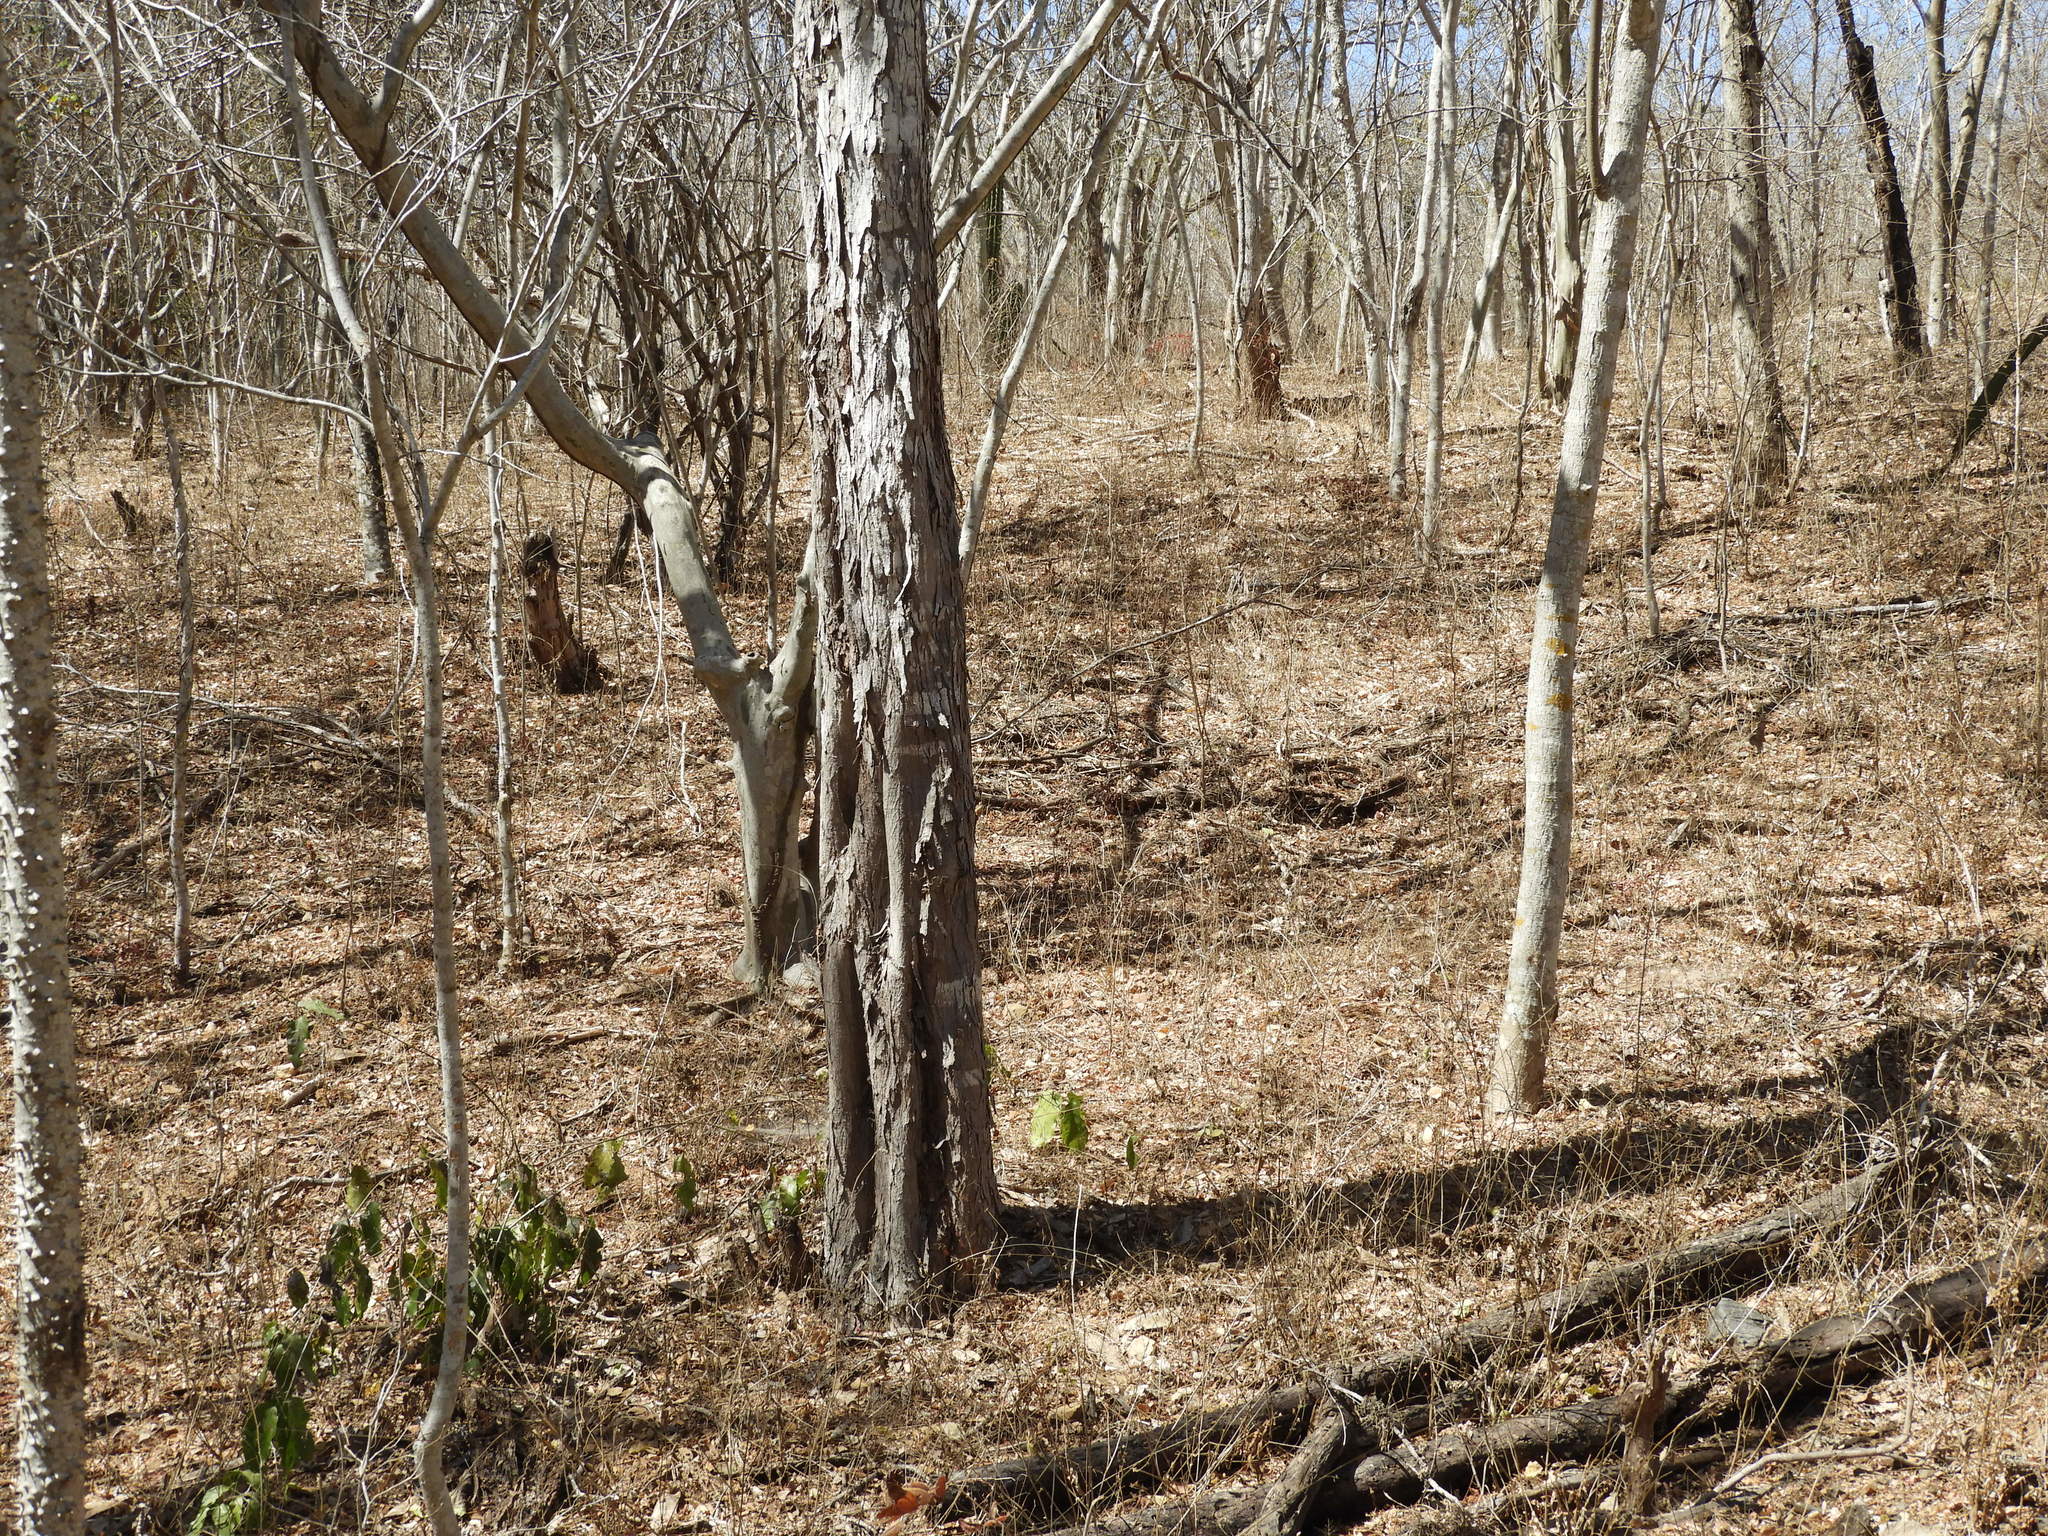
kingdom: Plantae
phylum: Tracheophyta
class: Magnoliopsida
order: Fabales
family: Fabaceae
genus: Cenostigma
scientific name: Cenostigma eriostachys
